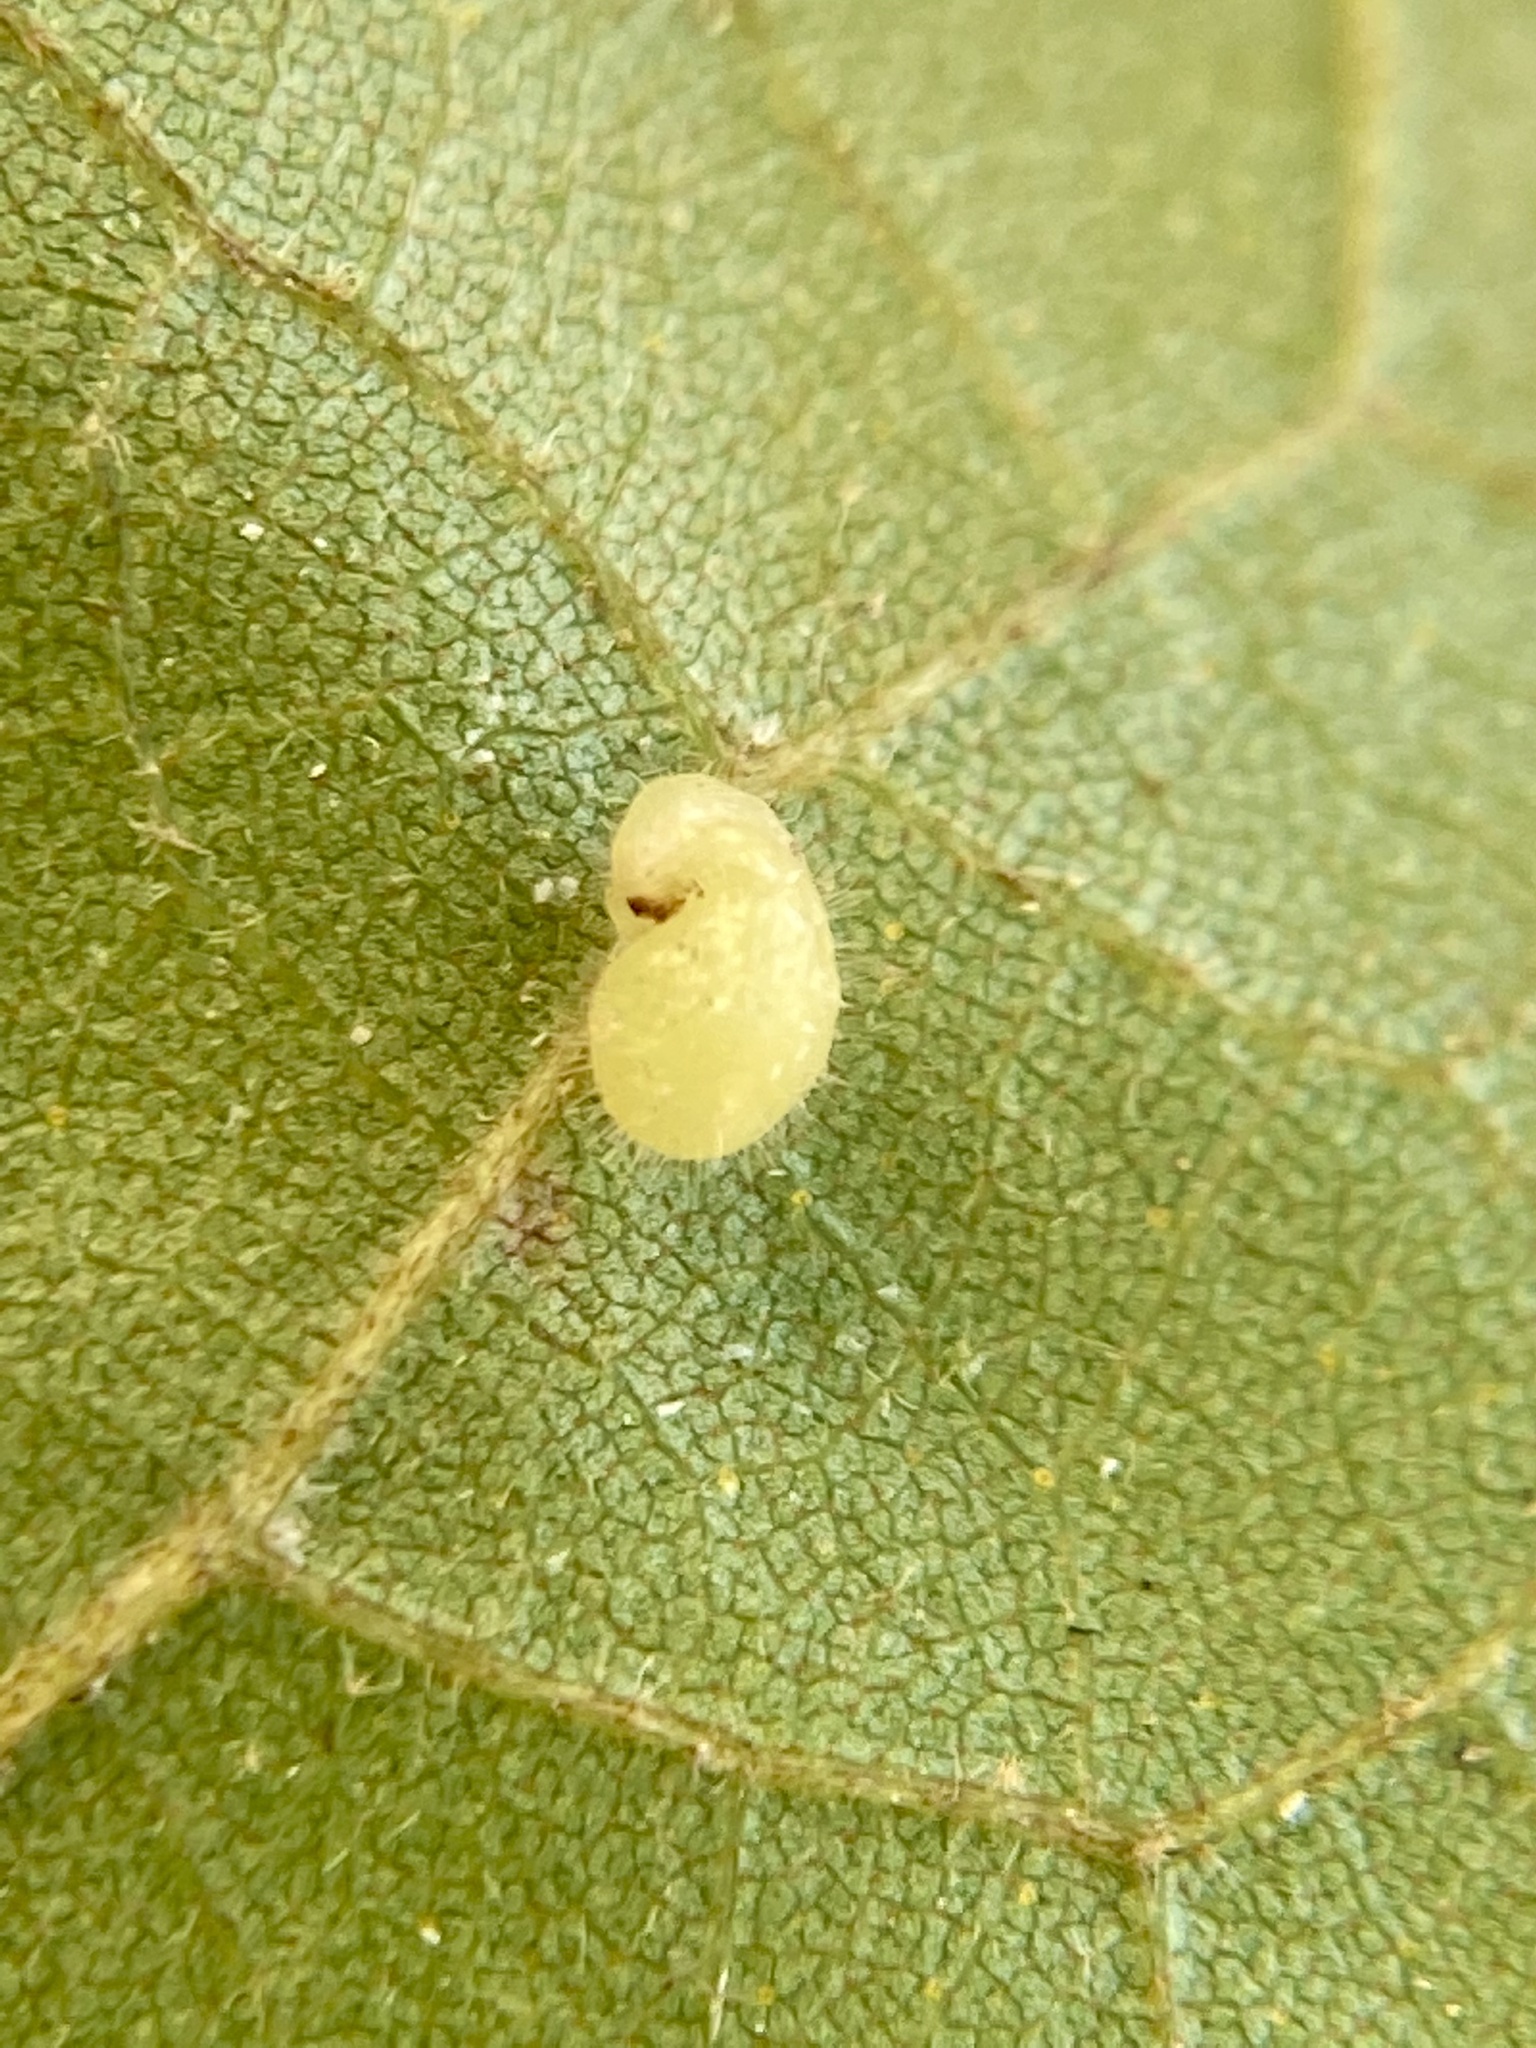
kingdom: Animalia
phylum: Arthropoda
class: Insecta
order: Diptera
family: Cecidomyiidae
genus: Caryomyia
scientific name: Caryomyia eumaris
